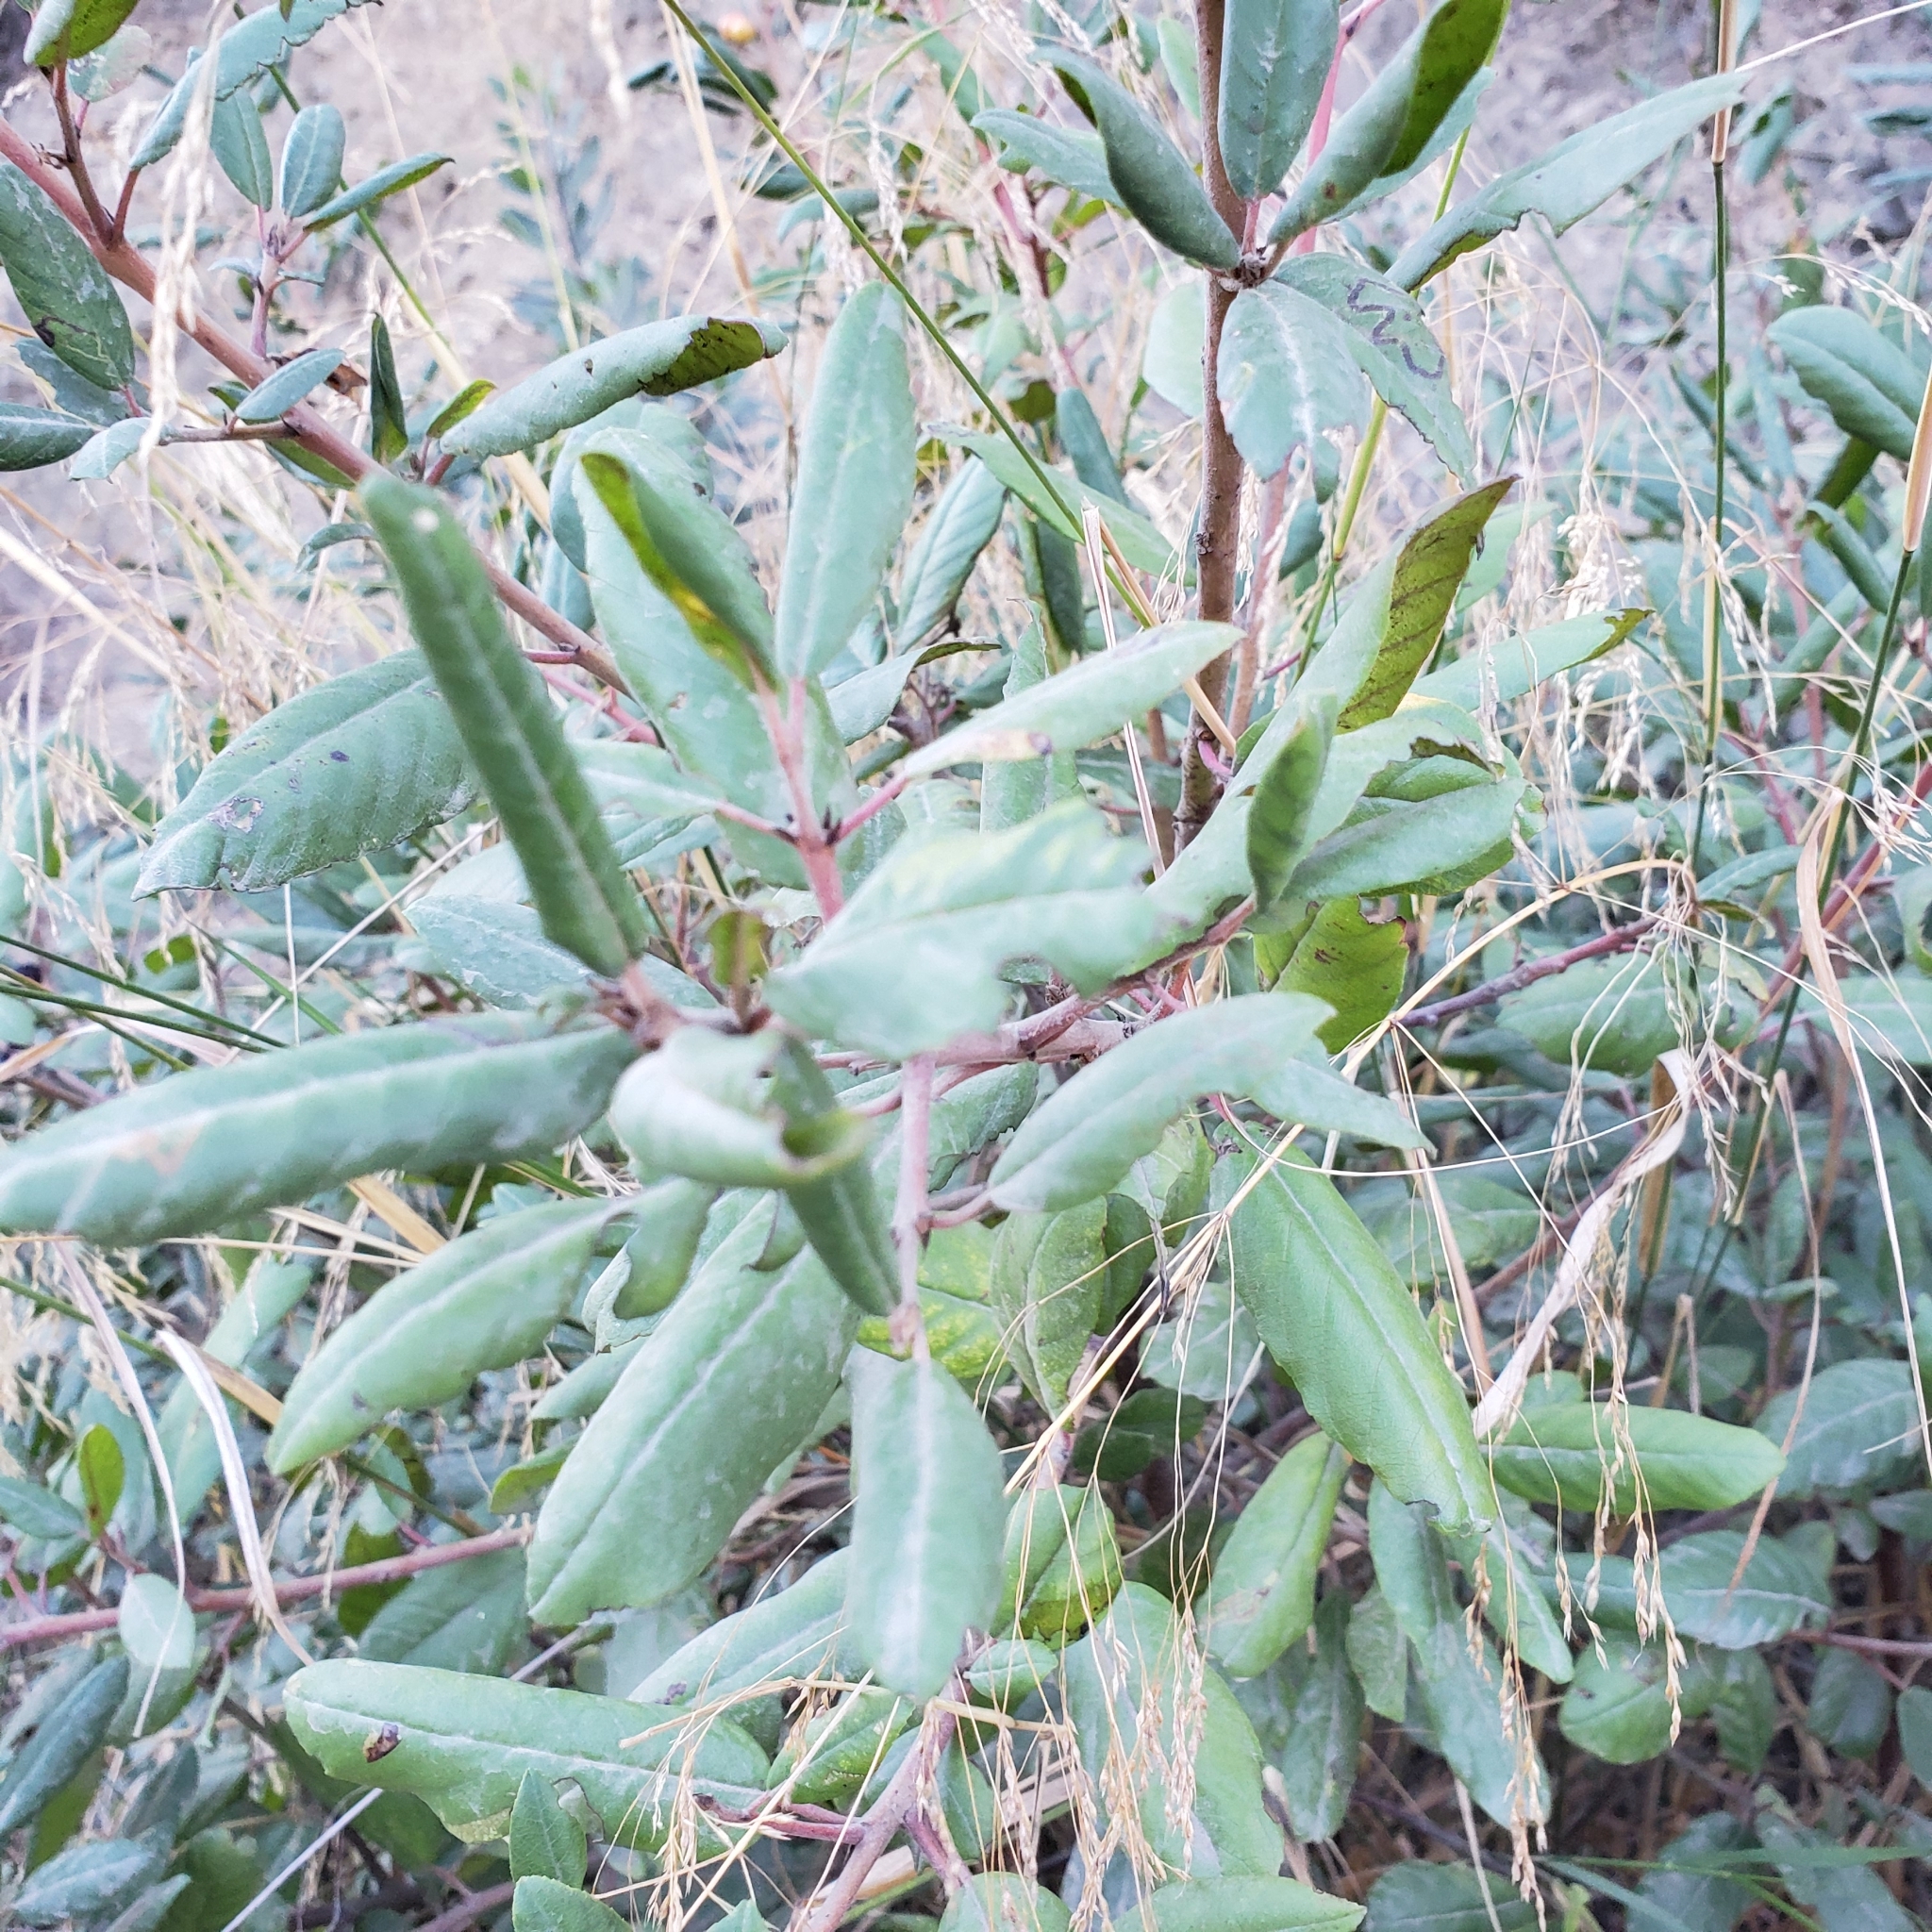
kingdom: Plantae
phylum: Tracheophyta
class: Magnoliopsida
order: Rosales
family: Rhamnaceae
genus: Frangula
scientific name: Frangula californica
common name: California buckthorn
